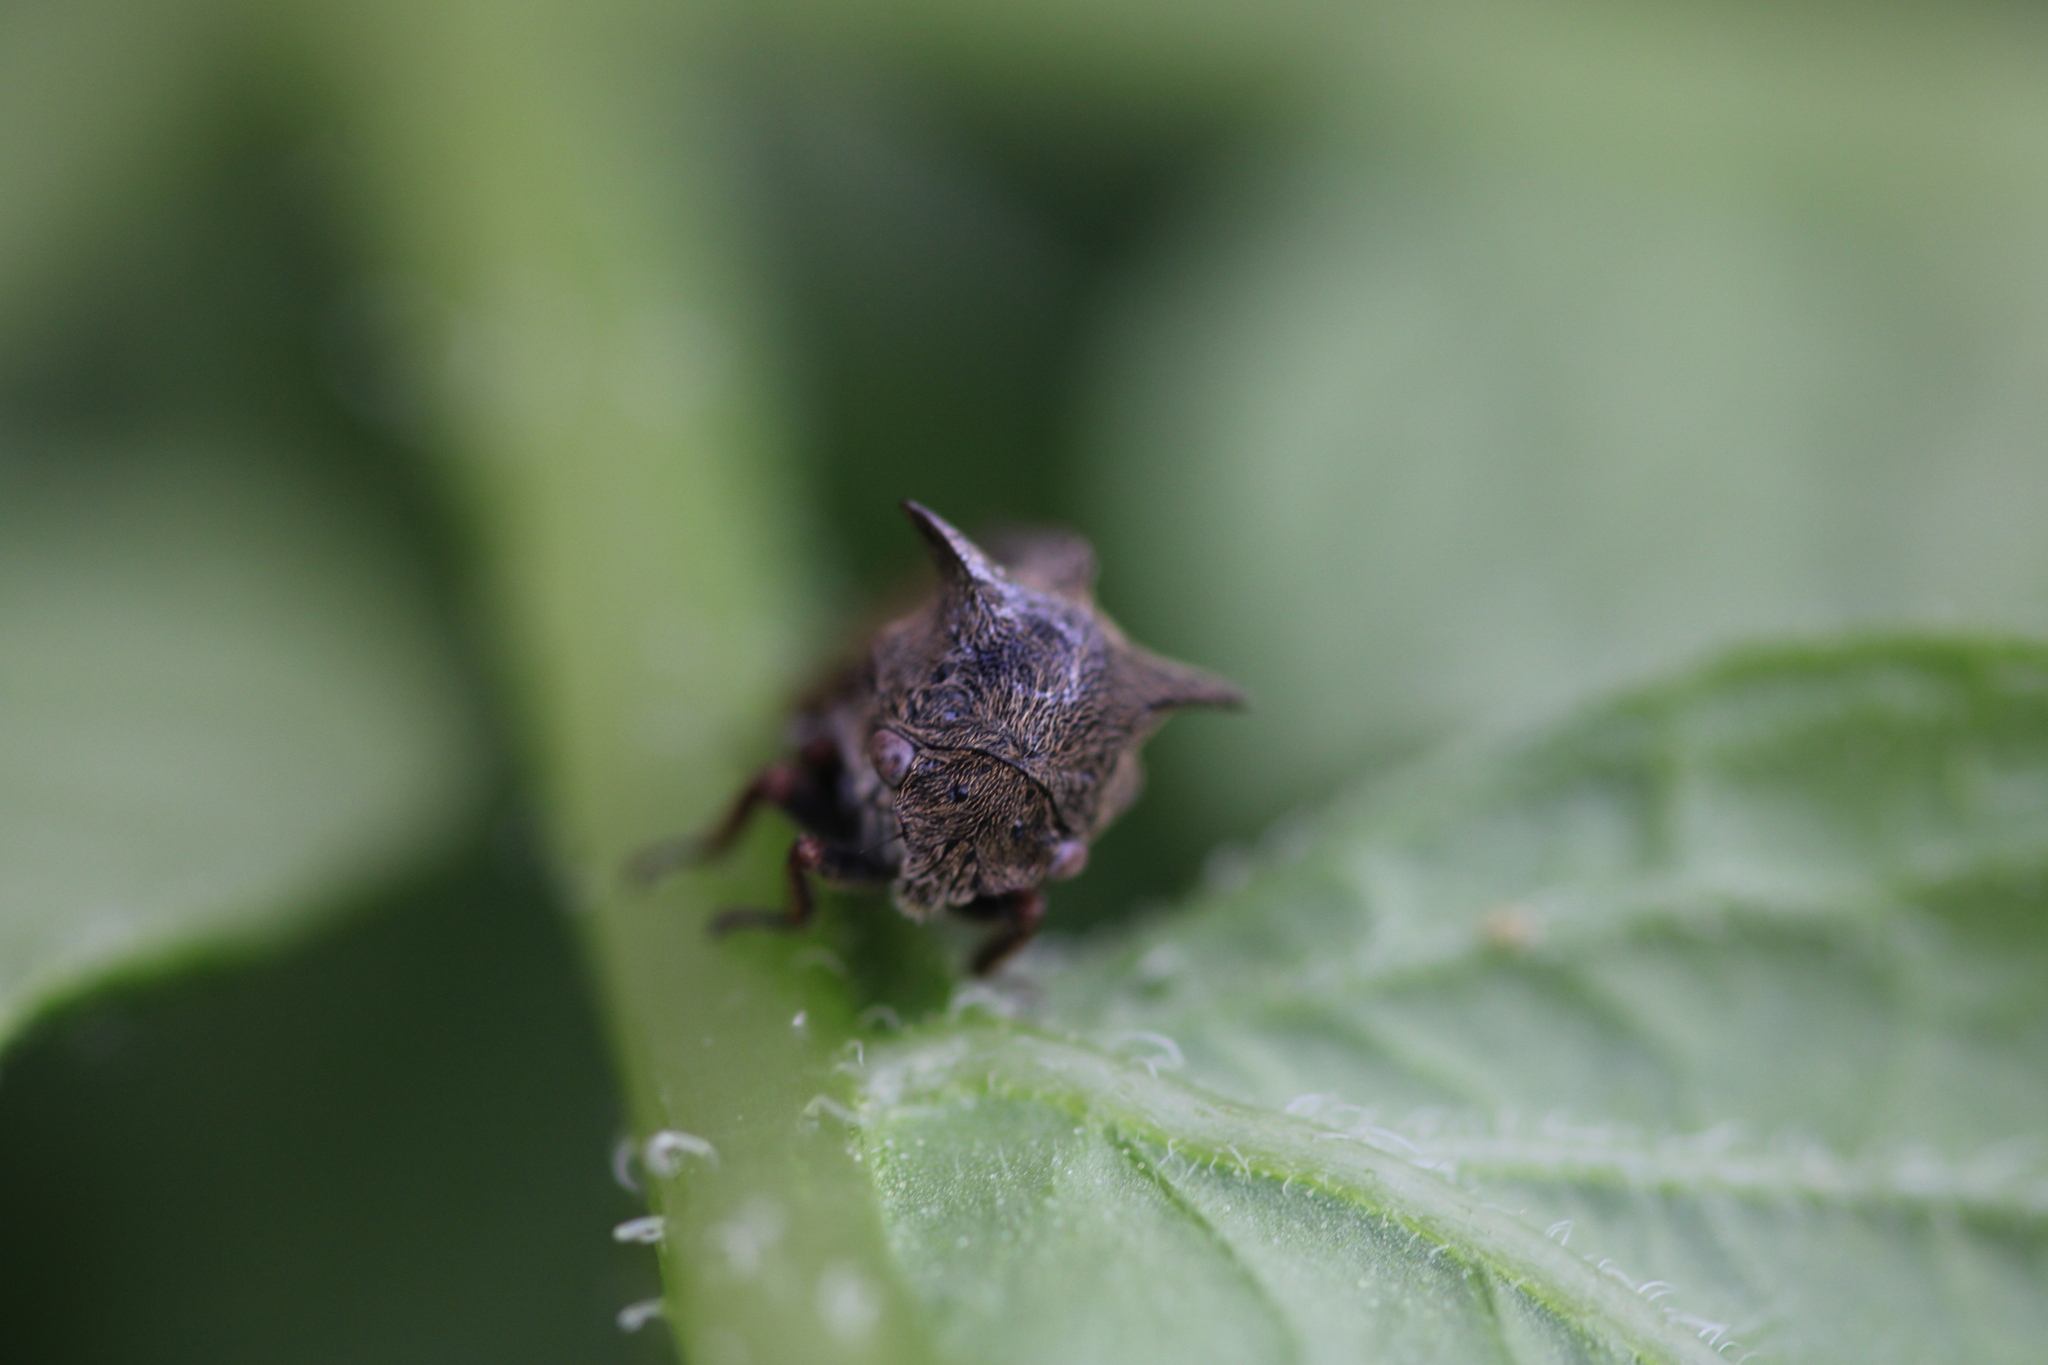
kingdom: Animalia
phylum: Arthropoda
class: Insecta
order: Hemiptera
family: Membracidae
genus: Centrotus
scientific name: Centrotus cornuta
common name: Treehopper
